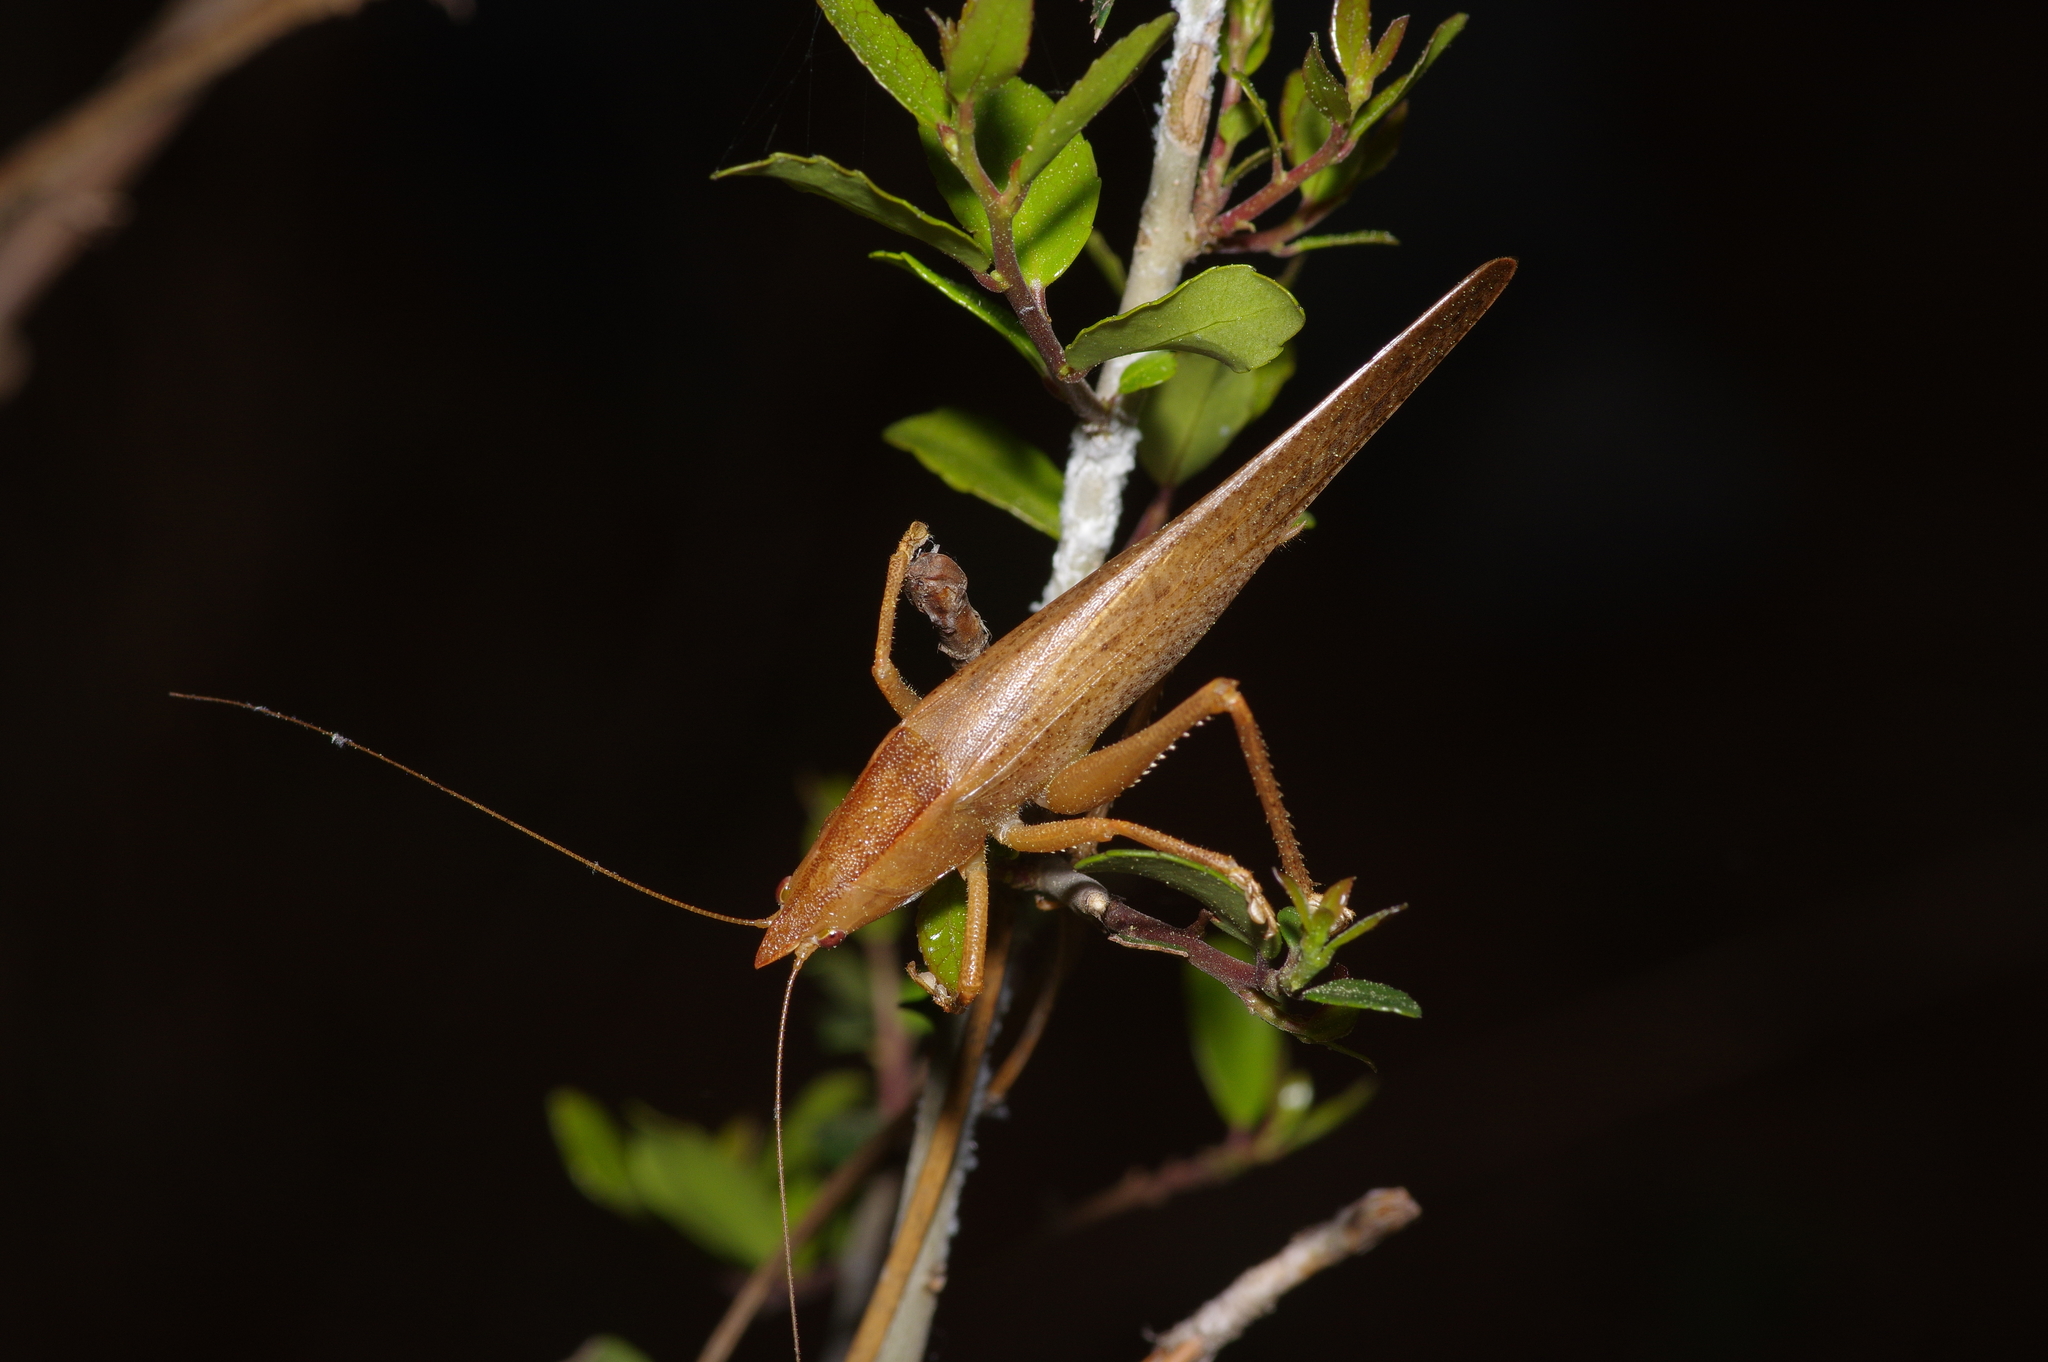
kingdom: Animalia
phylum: Arthropoda
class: Insecta
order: Orthoptera
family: Tettigoniidae
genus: Pyrgocorypha
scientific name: Pyrgocorypha uncinata
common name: Hook-faced conehead
